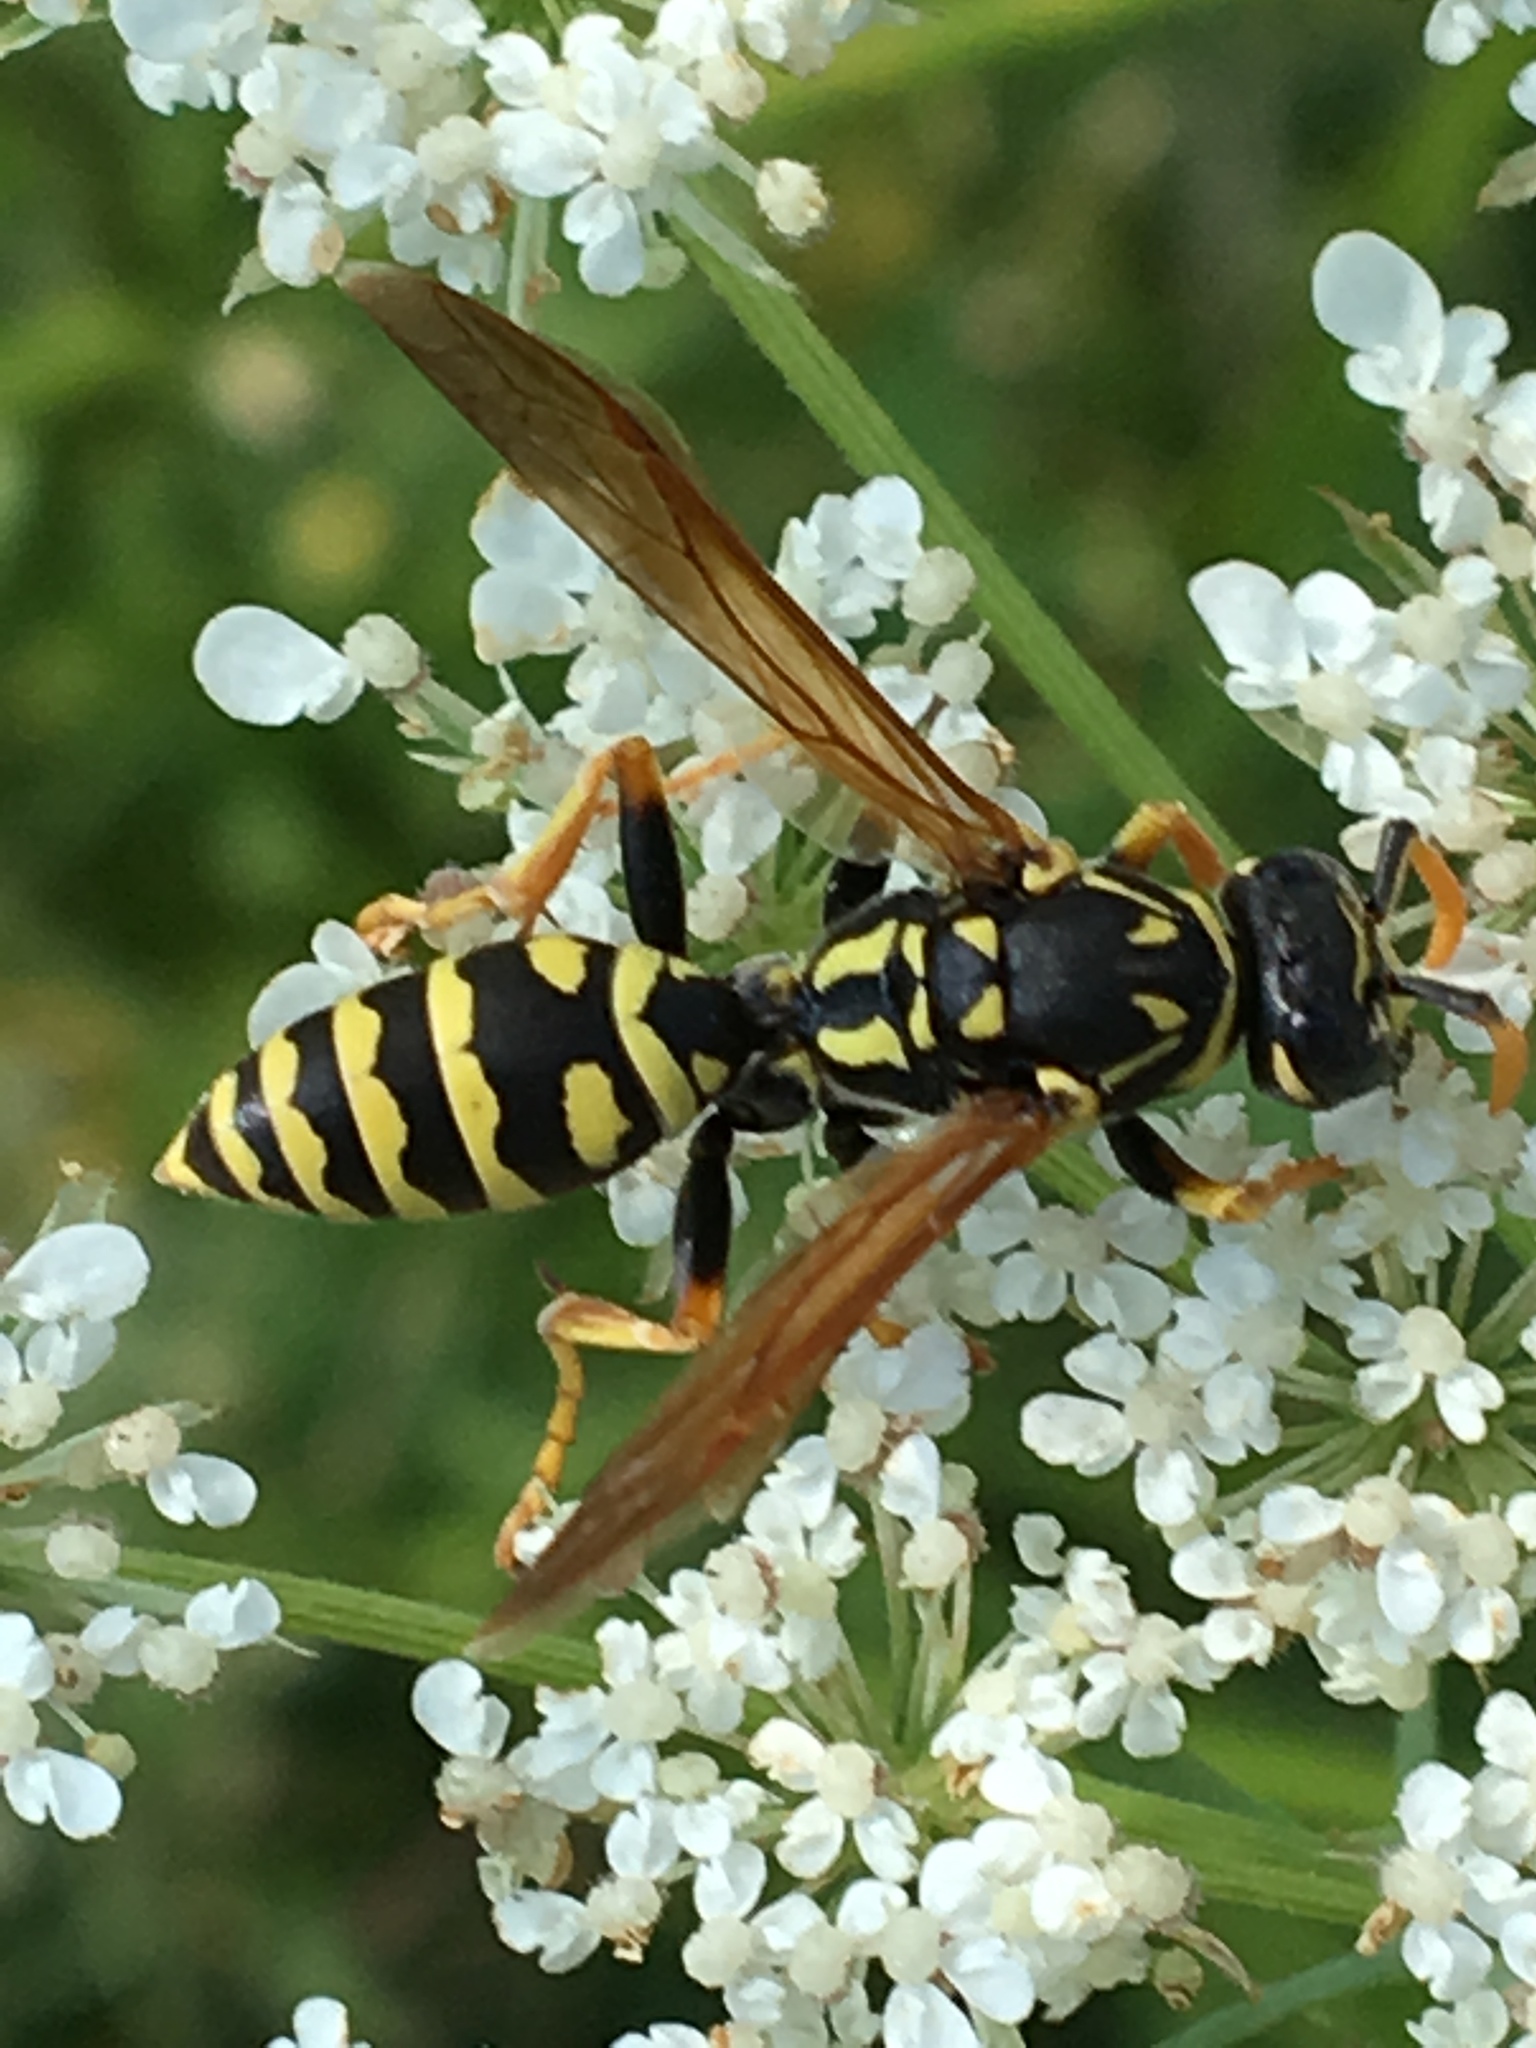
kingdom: Animalia
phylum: Arthropoda
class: Insecta
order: Hymenoptera
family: Eumenidae
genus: Polistes
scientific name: Polistes dominula
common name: Paper wasp
